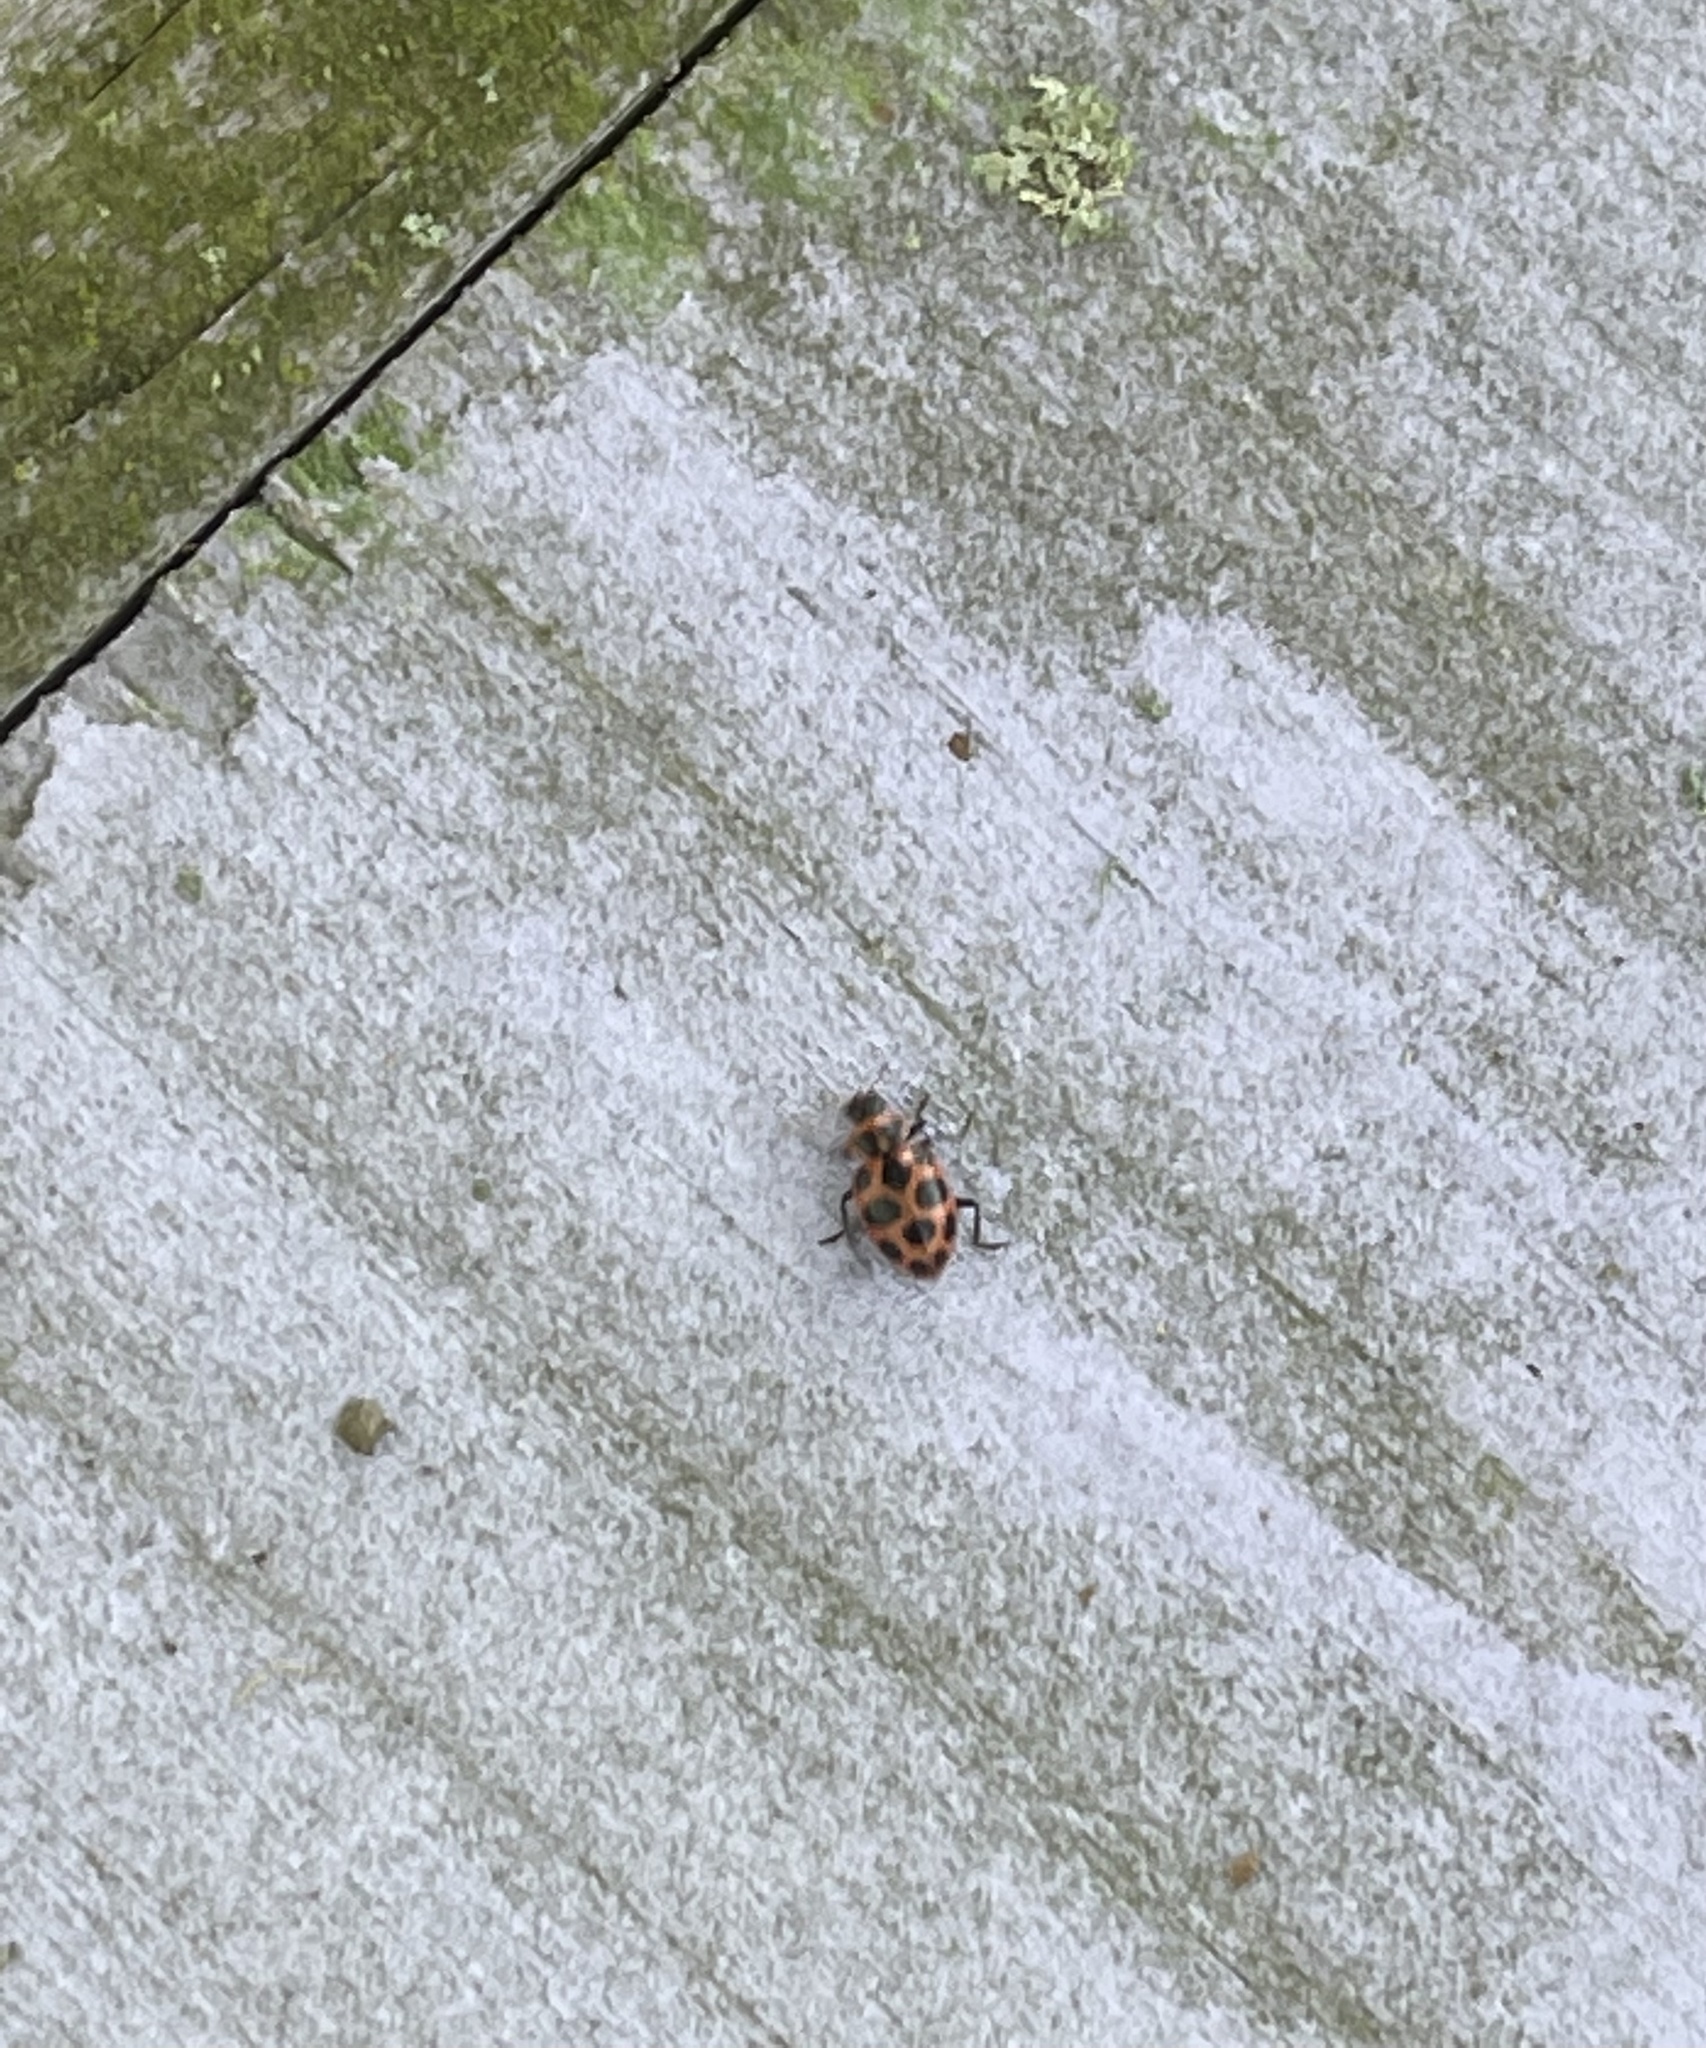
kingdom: Animalia
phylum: Arthropoda
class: Insecta
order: Coleoptera
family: Coccinellidae
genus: Coleomegilla
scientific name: Coleomegilla maculata
